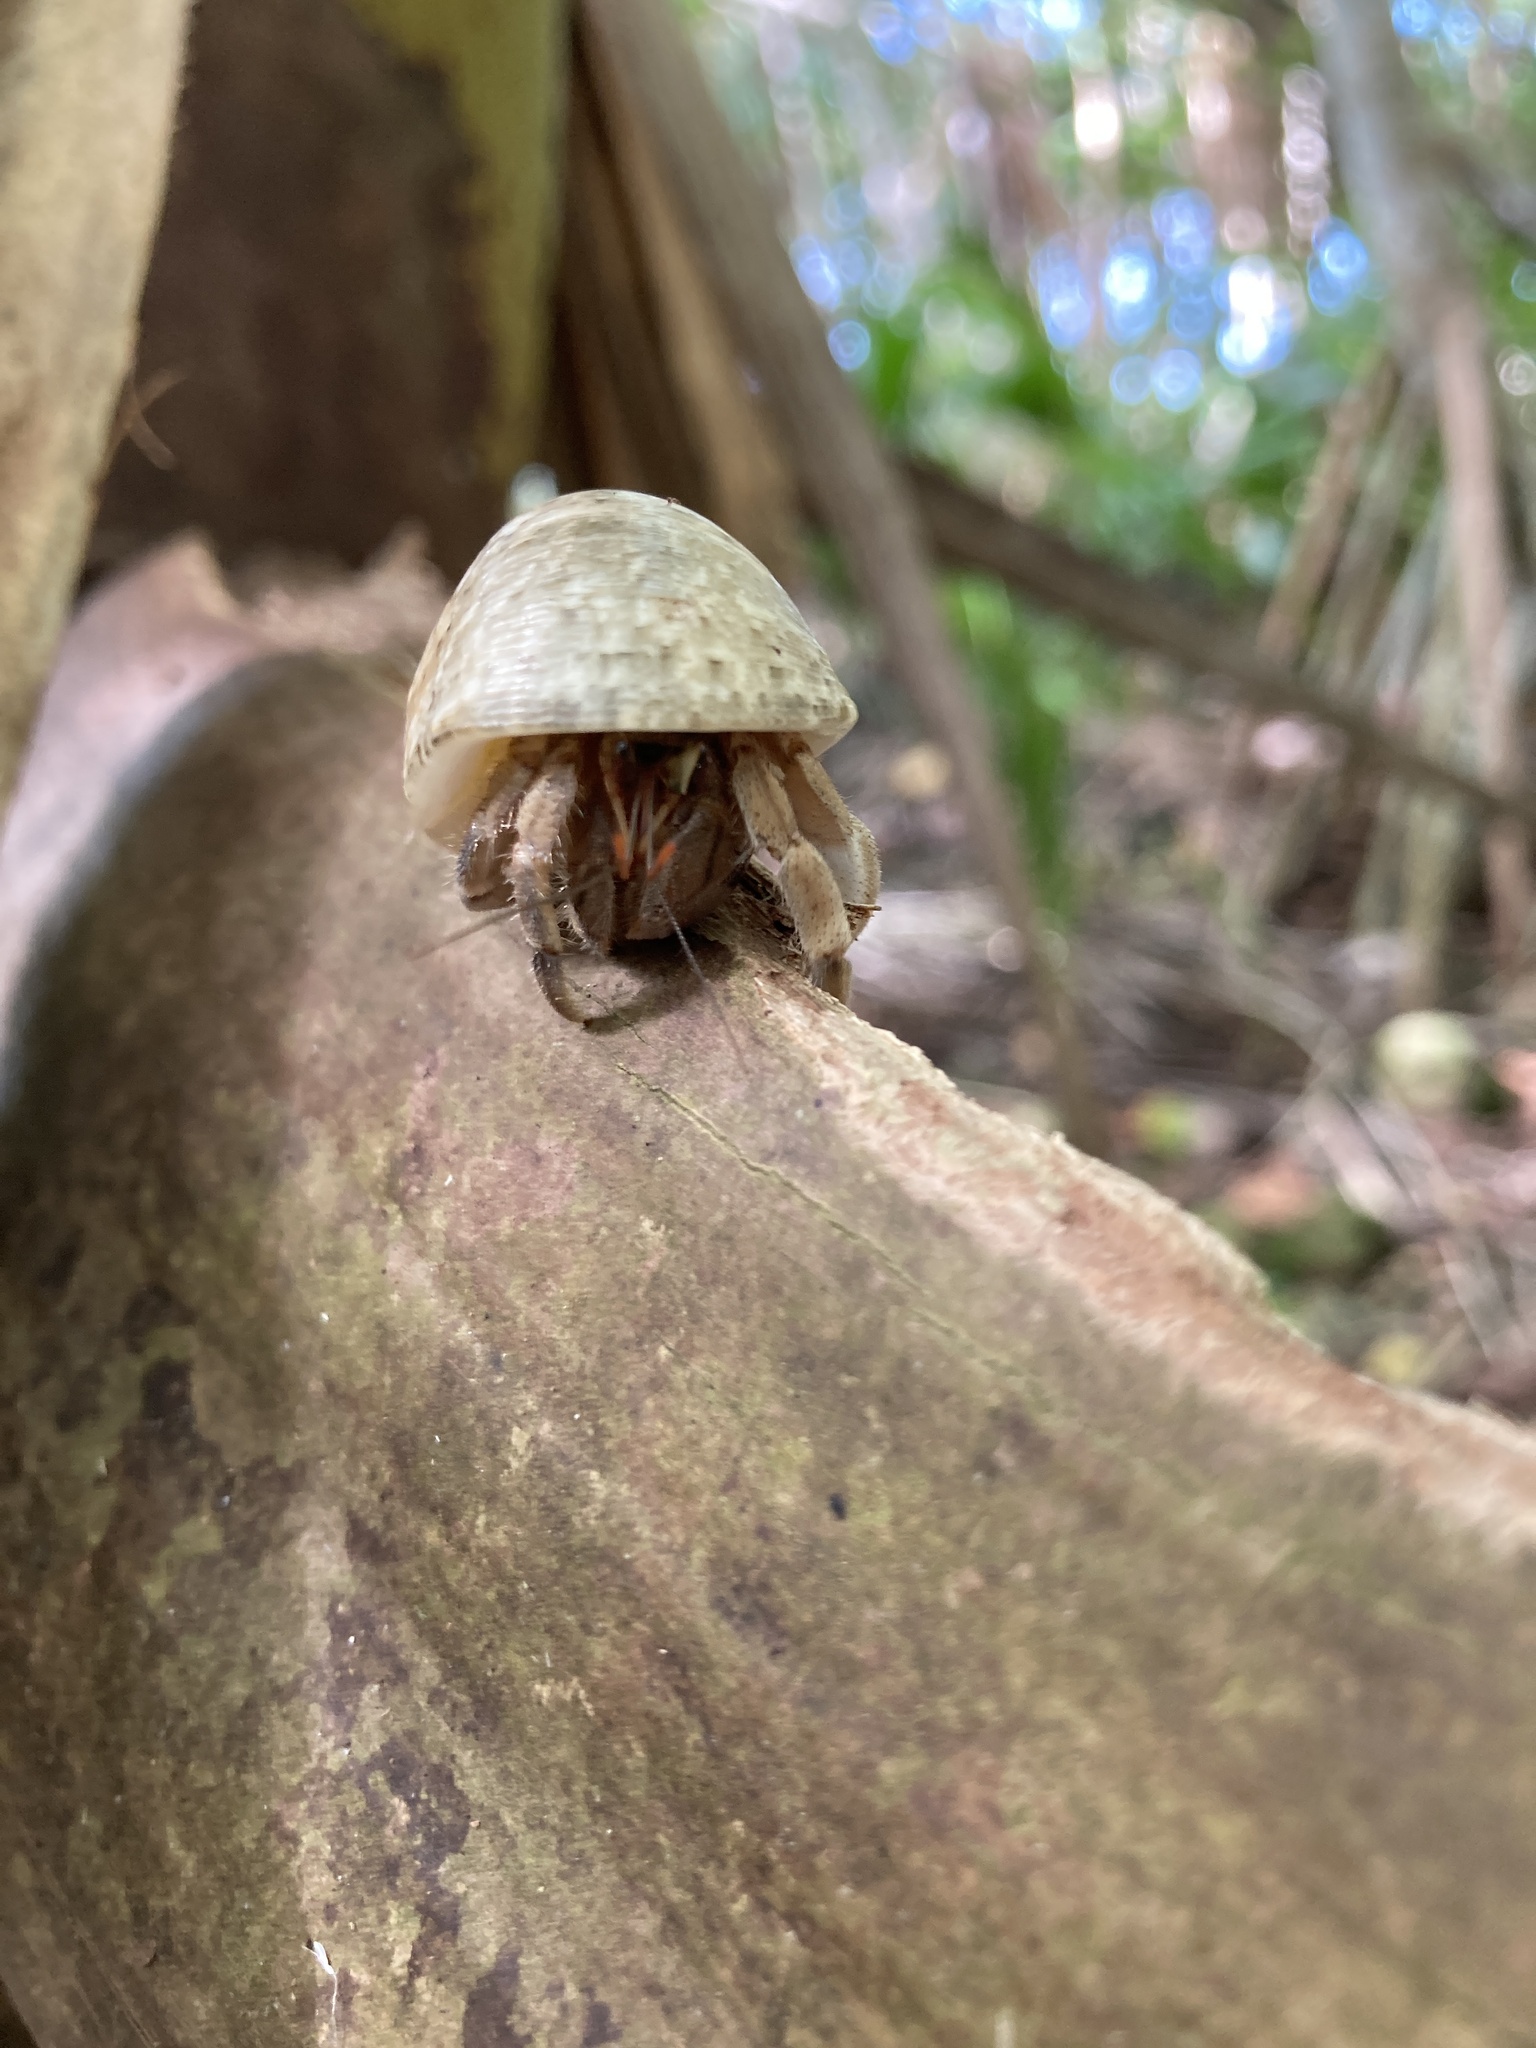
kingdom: Animalia
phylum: Arthropoda
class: Malacostraca
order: Decapoda
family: Coenobitidae
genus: Coenobita
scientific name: Coenobita rugosus
